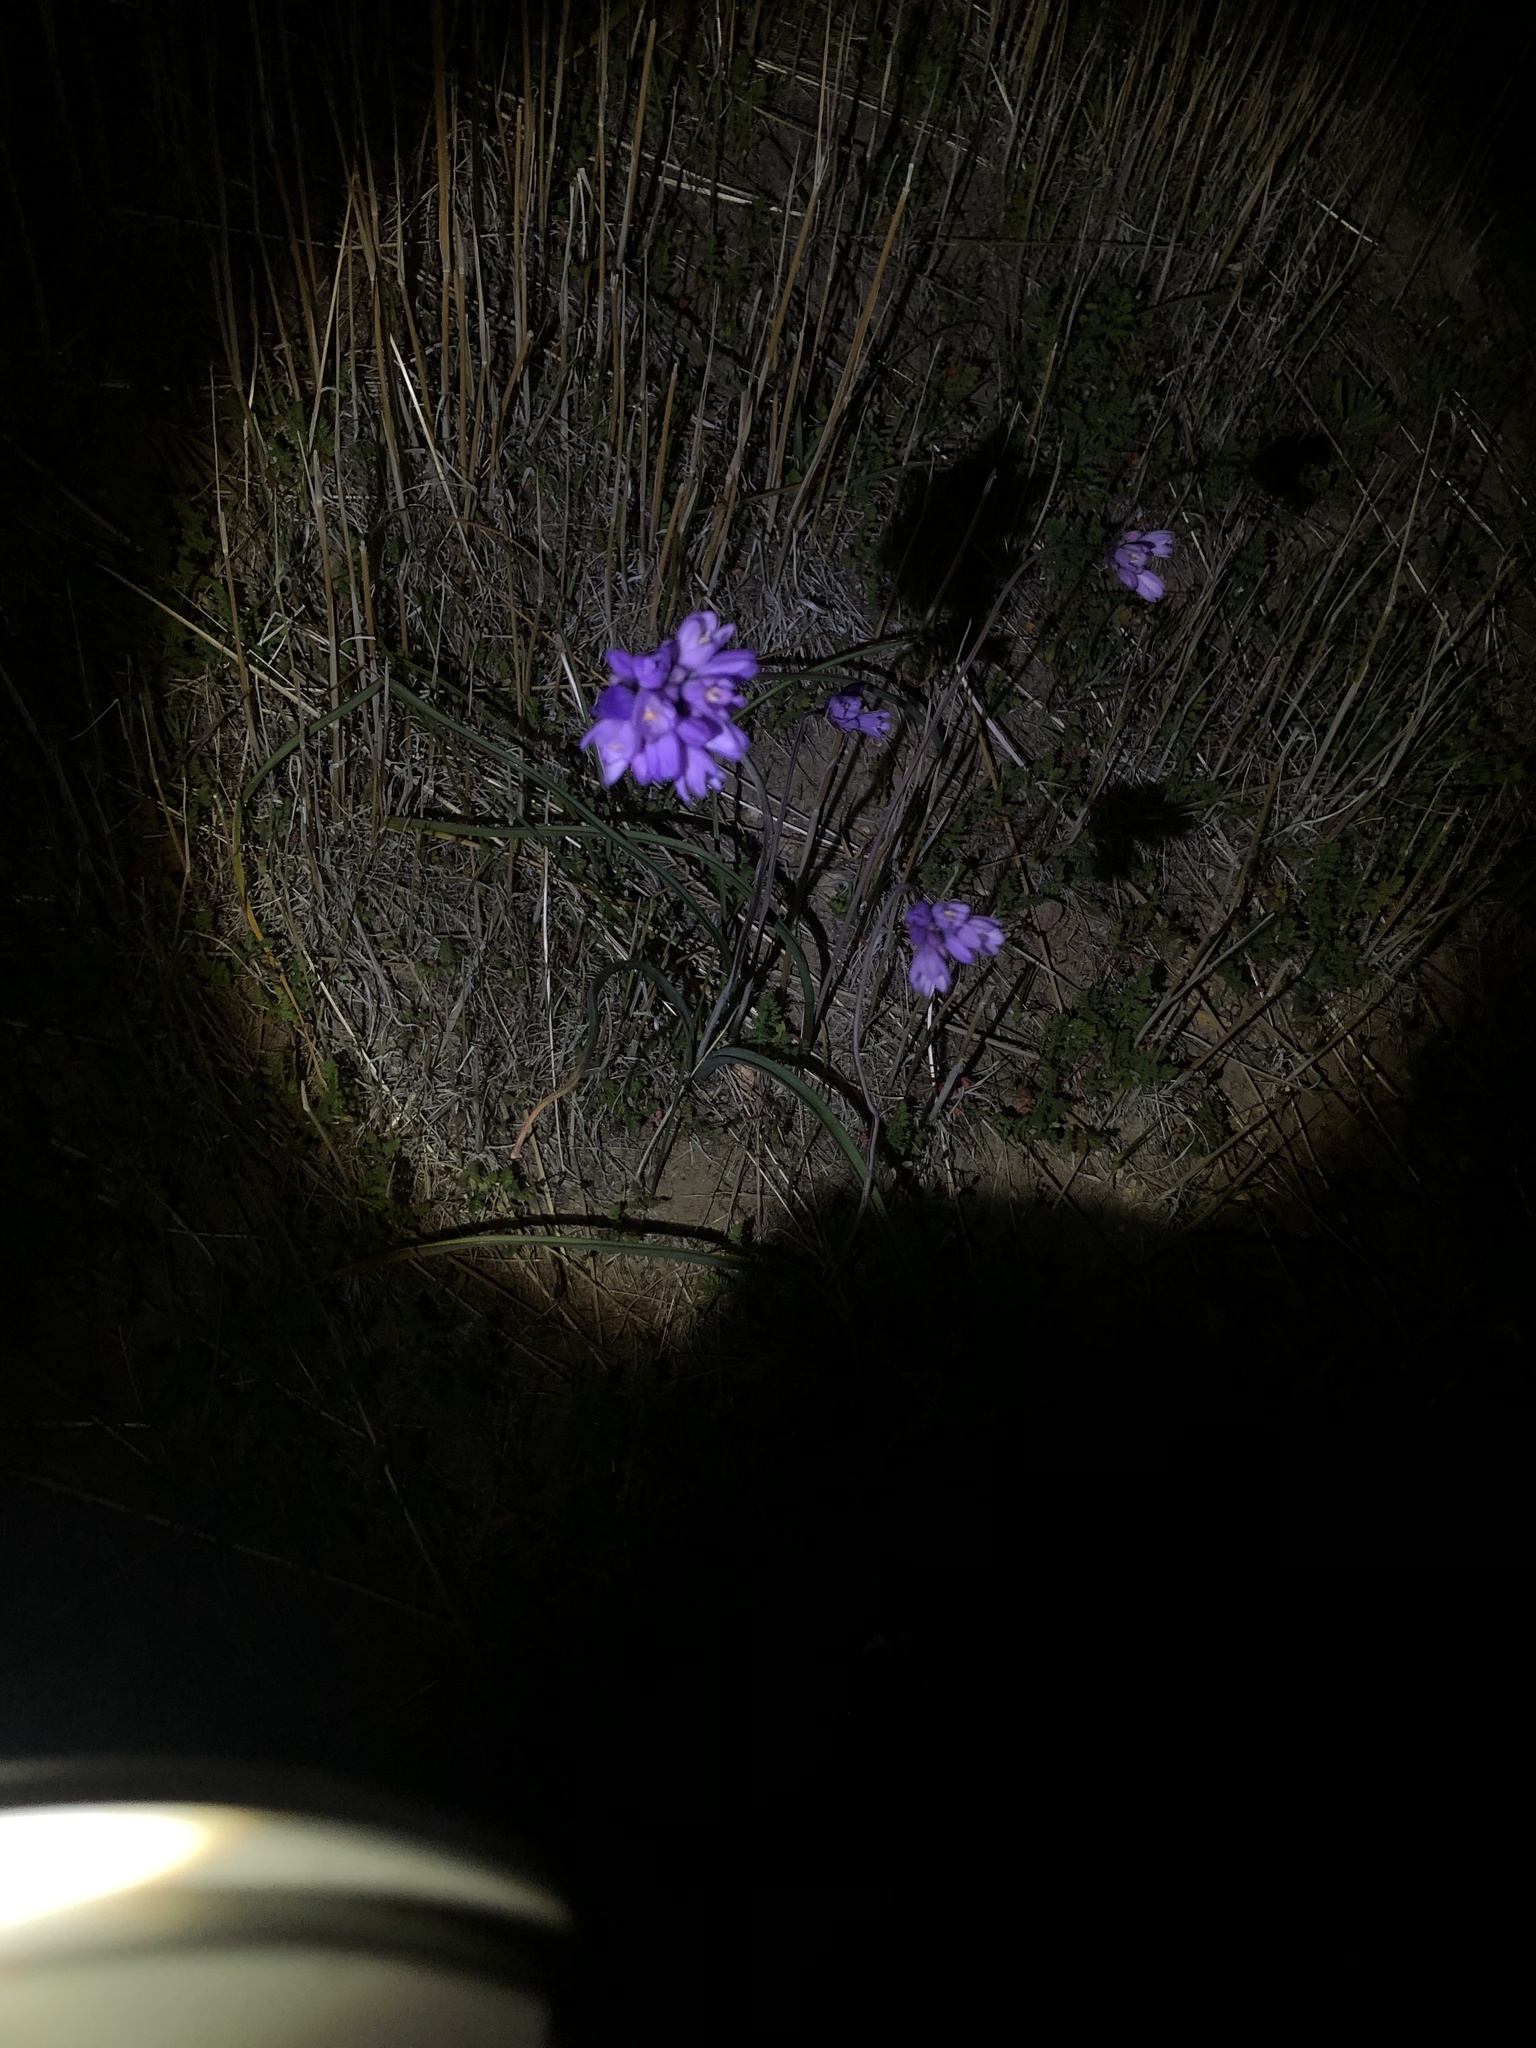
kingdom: Plantae
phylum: Tracheophyta
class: Liliopsida
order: Asparagales
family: Asparagaceae
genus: Dipterostemon
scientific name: Dipterostemon capitatus
